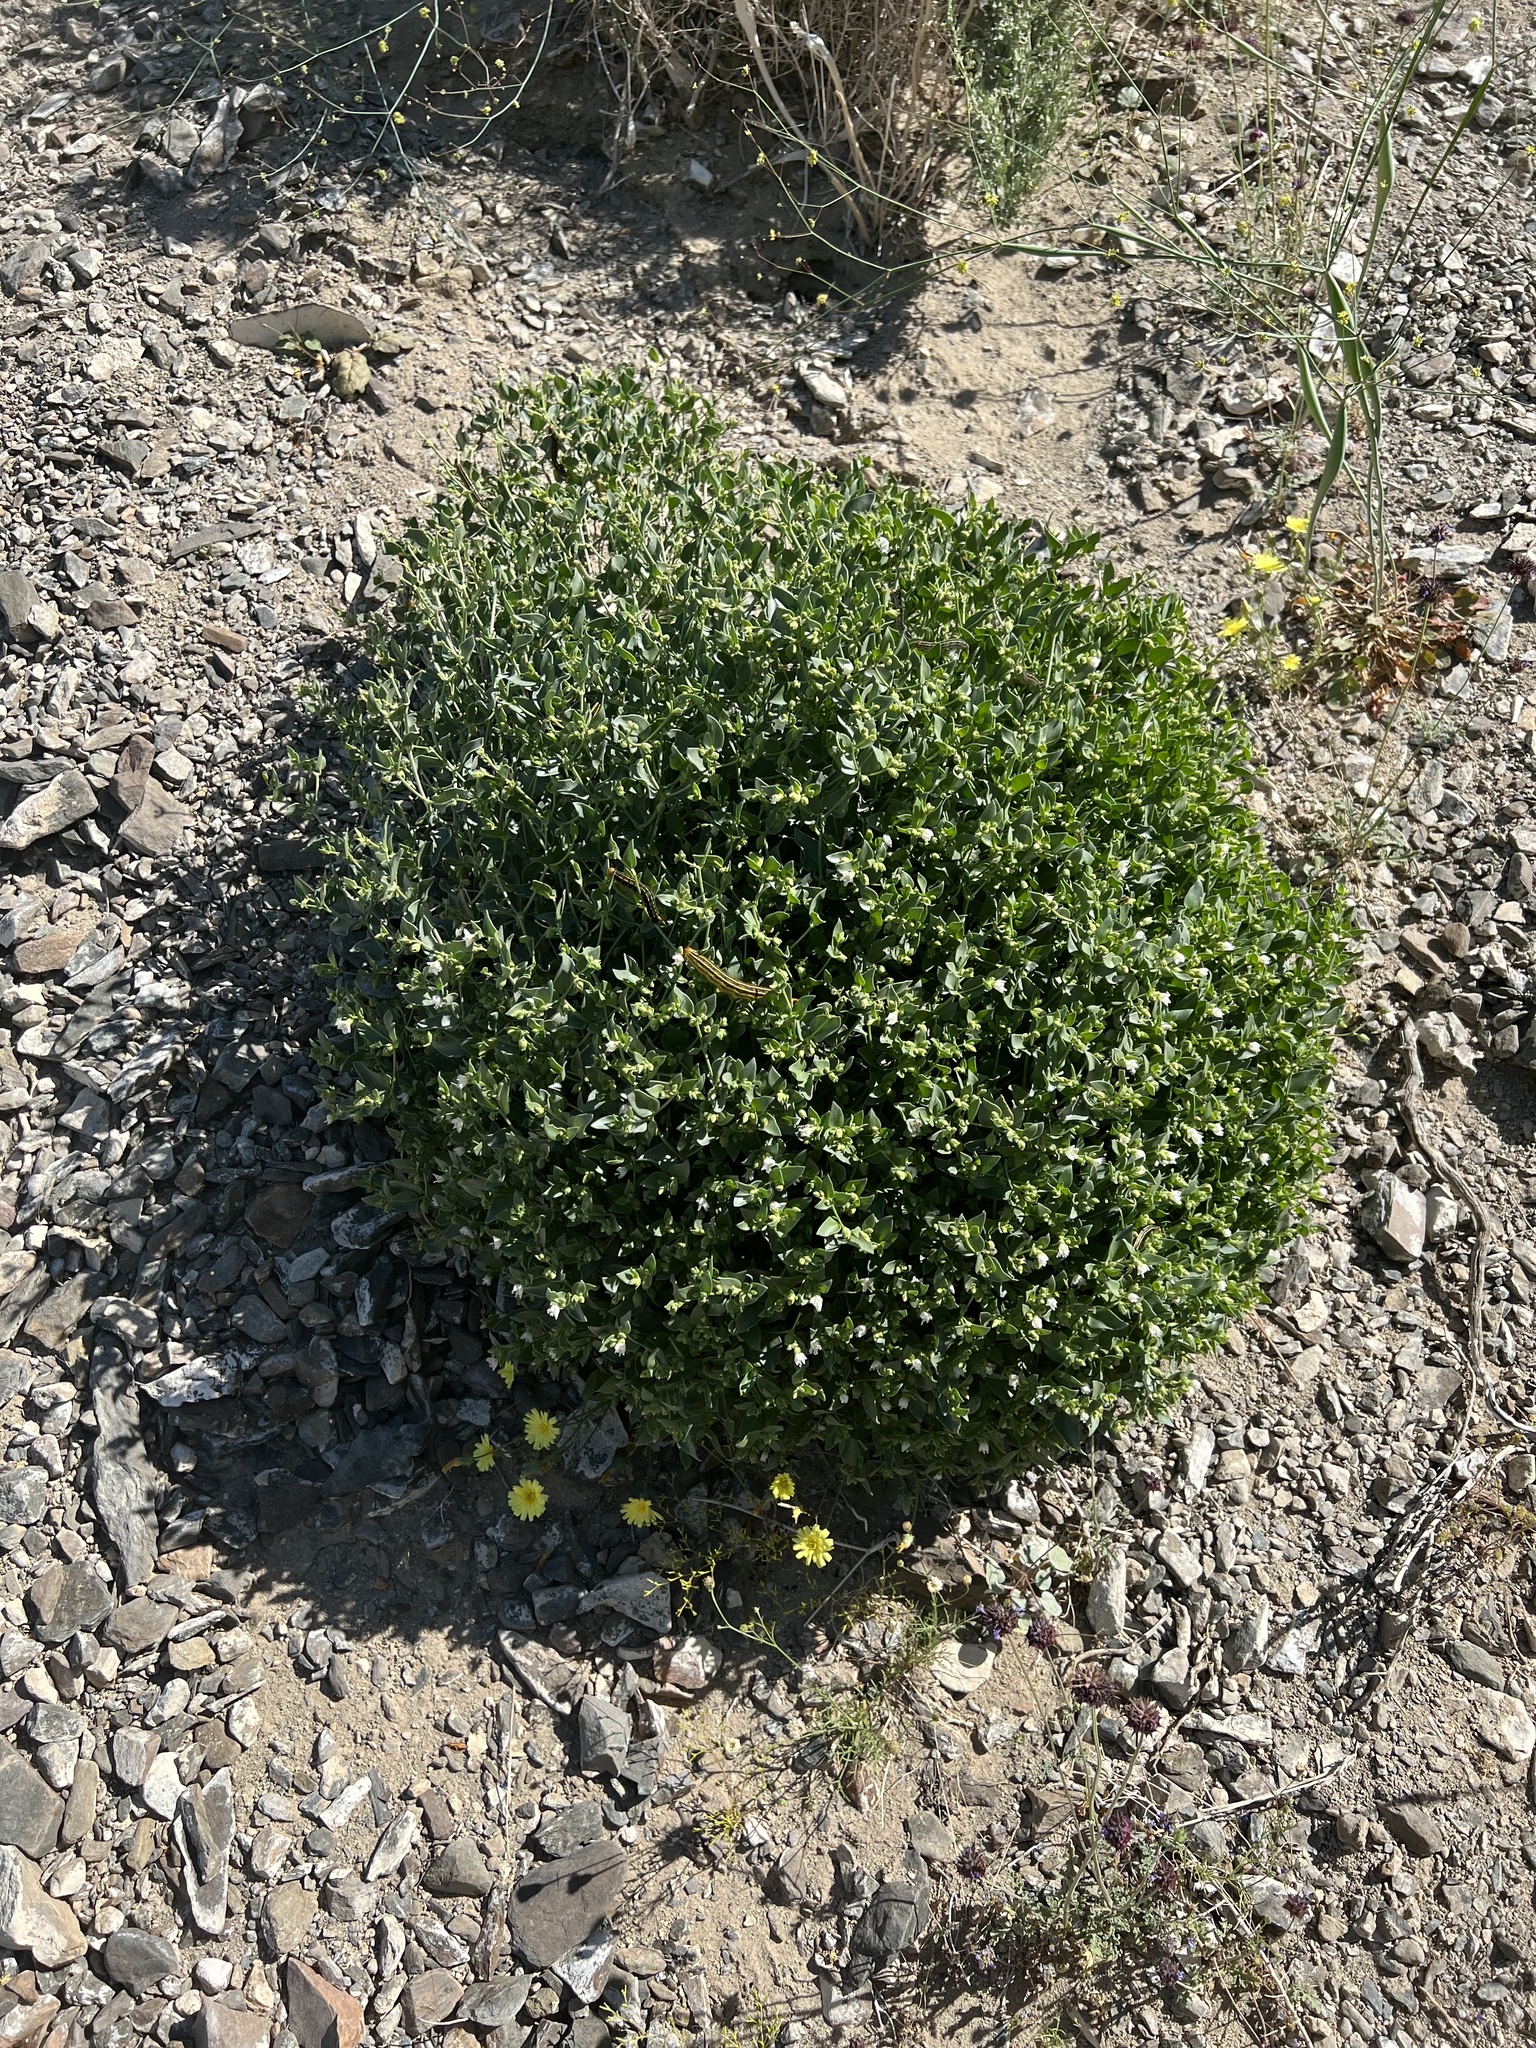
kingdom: Plantae
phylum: Tracheophyta
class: Magnoliopsida
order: Caryophyllales
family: Nyctaginaceae
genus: Mirabilis
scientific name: Mirabilis laevis
